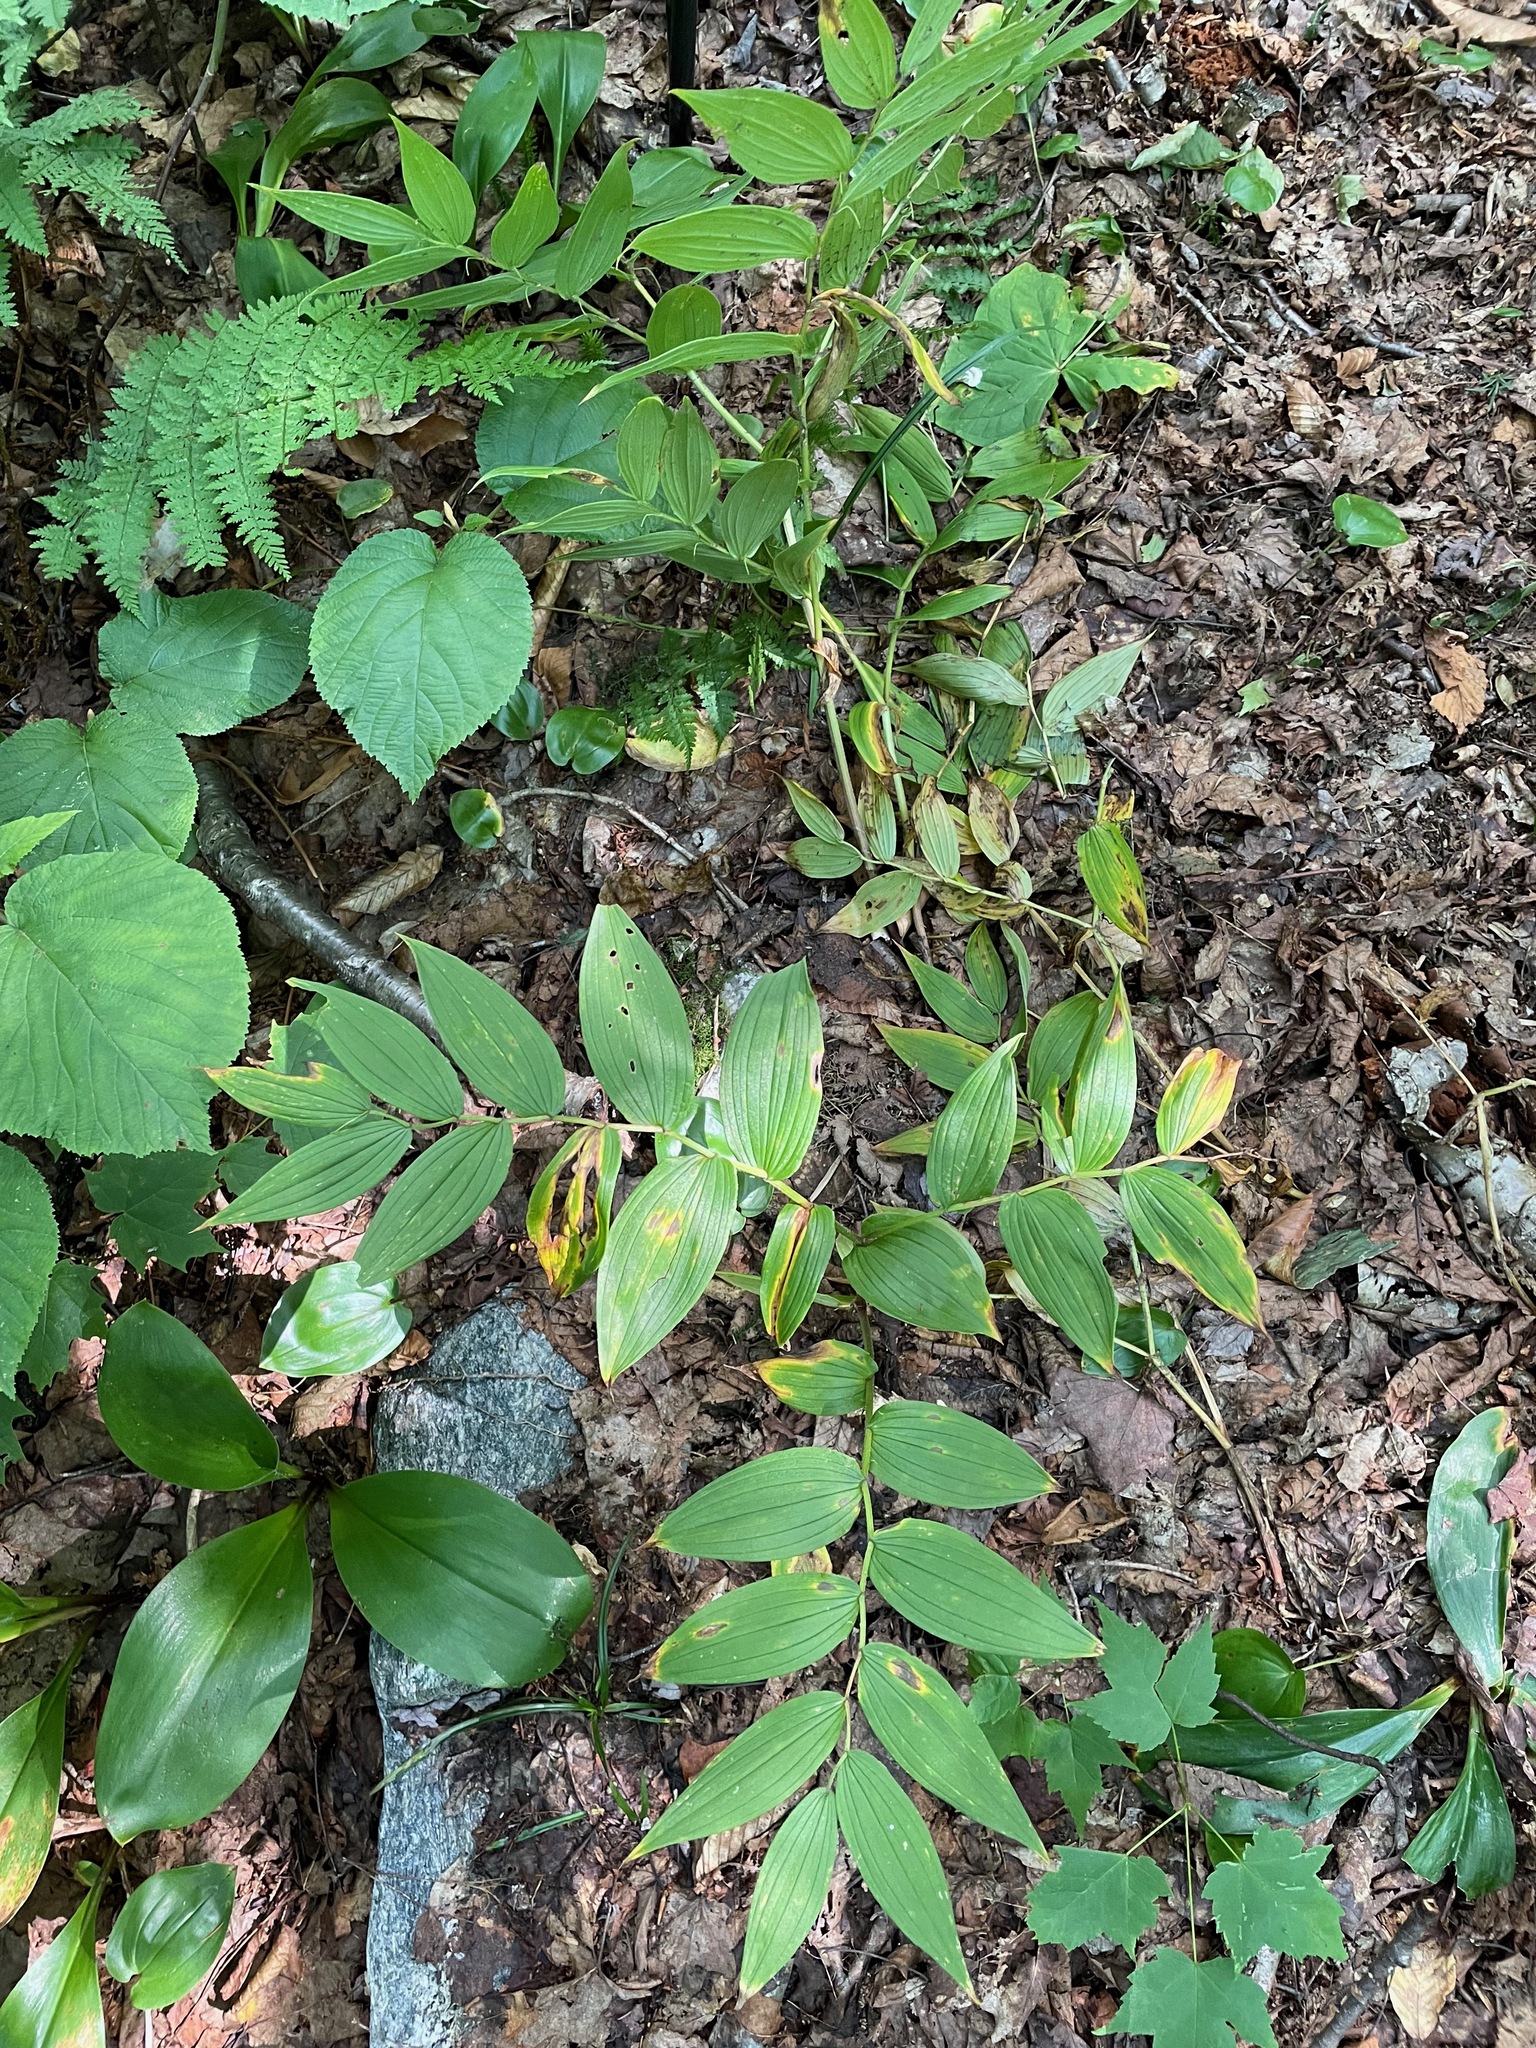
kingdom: Plantae
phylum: Tracheophyta
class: Liliopsida
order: Liliales
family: Liliaceae
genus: Streptopus
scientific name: Streptopus lanceolatus
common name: Rose mandarin
